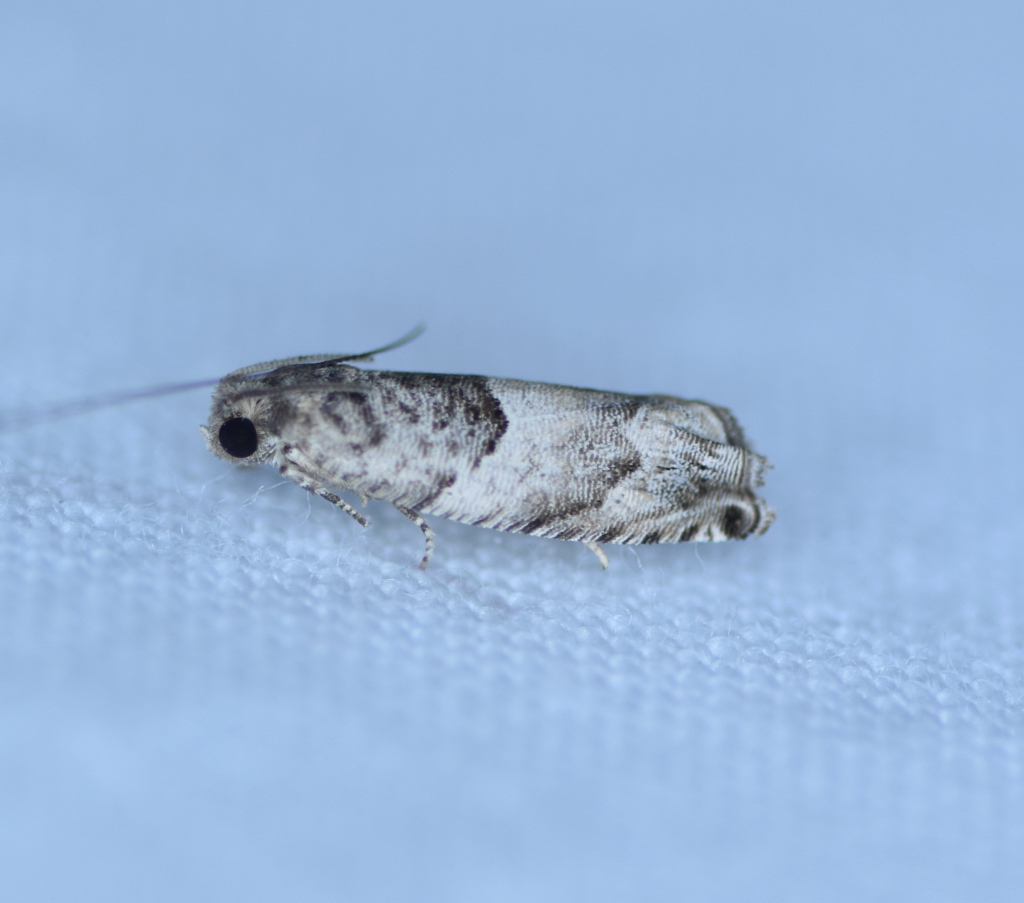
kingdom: Animalia
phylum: Arthropoda
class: Insecta
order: Lepidoptera
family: Tortricidae
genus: Gypsonoma
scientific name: Gypsonoma haimbachiana
